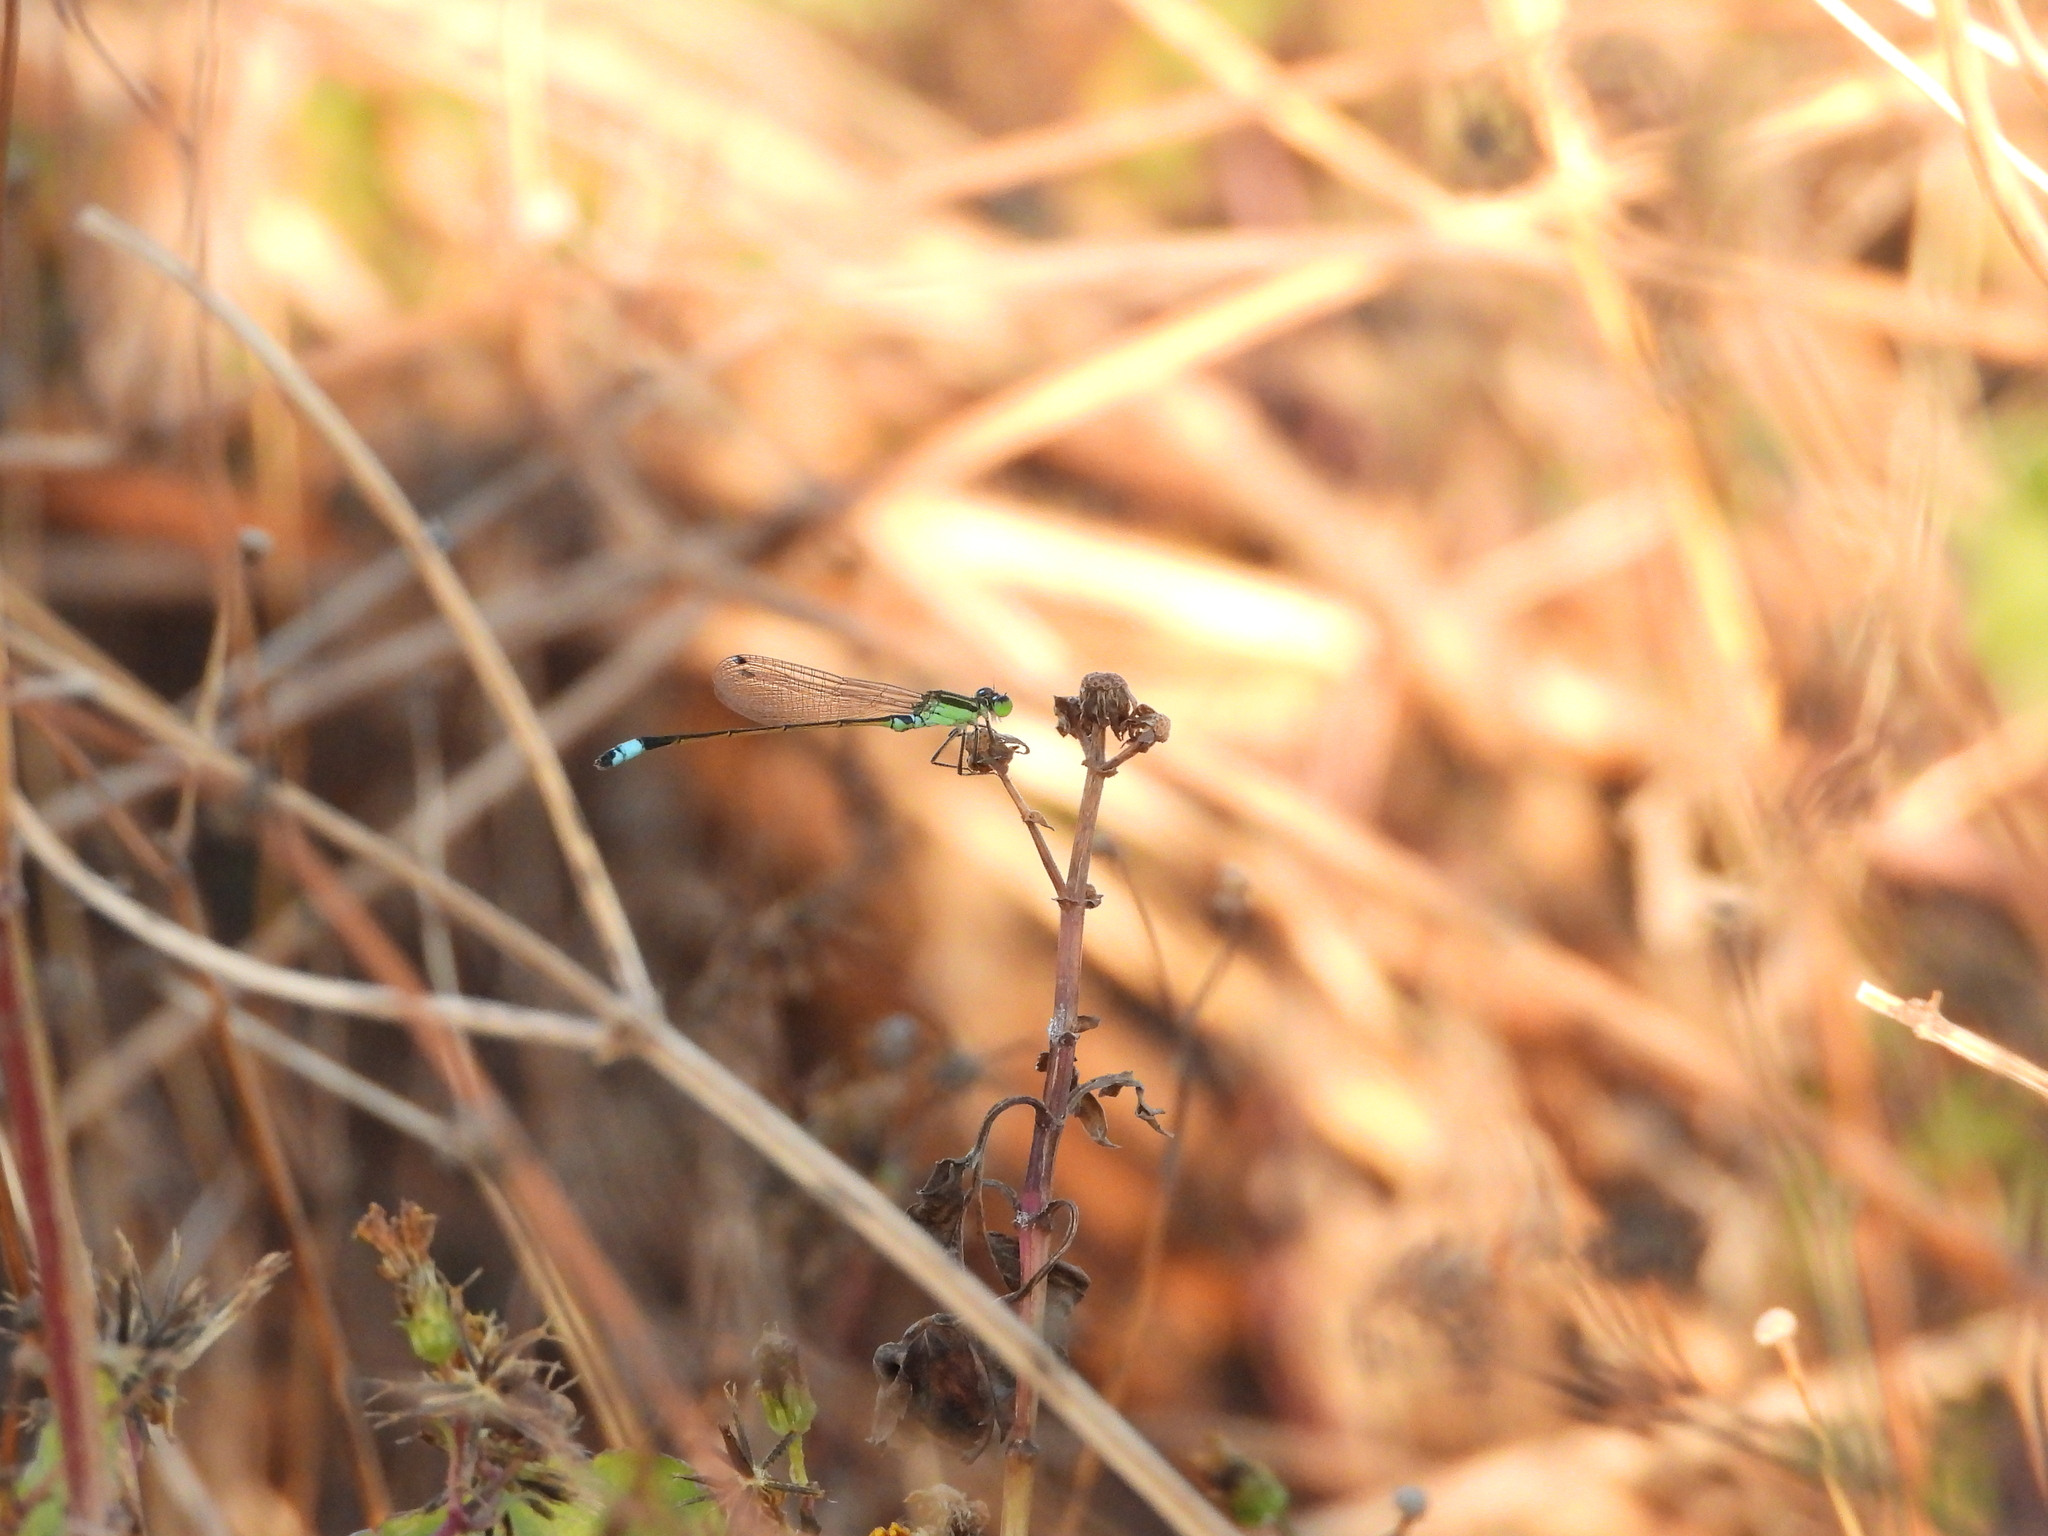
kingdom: Animalia
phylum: Arthropoda
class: Insecta
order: Odonata
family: Coenagrionidae
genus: Ischnura
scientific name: Ischnura senegalensis
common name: Tropical bluetail
